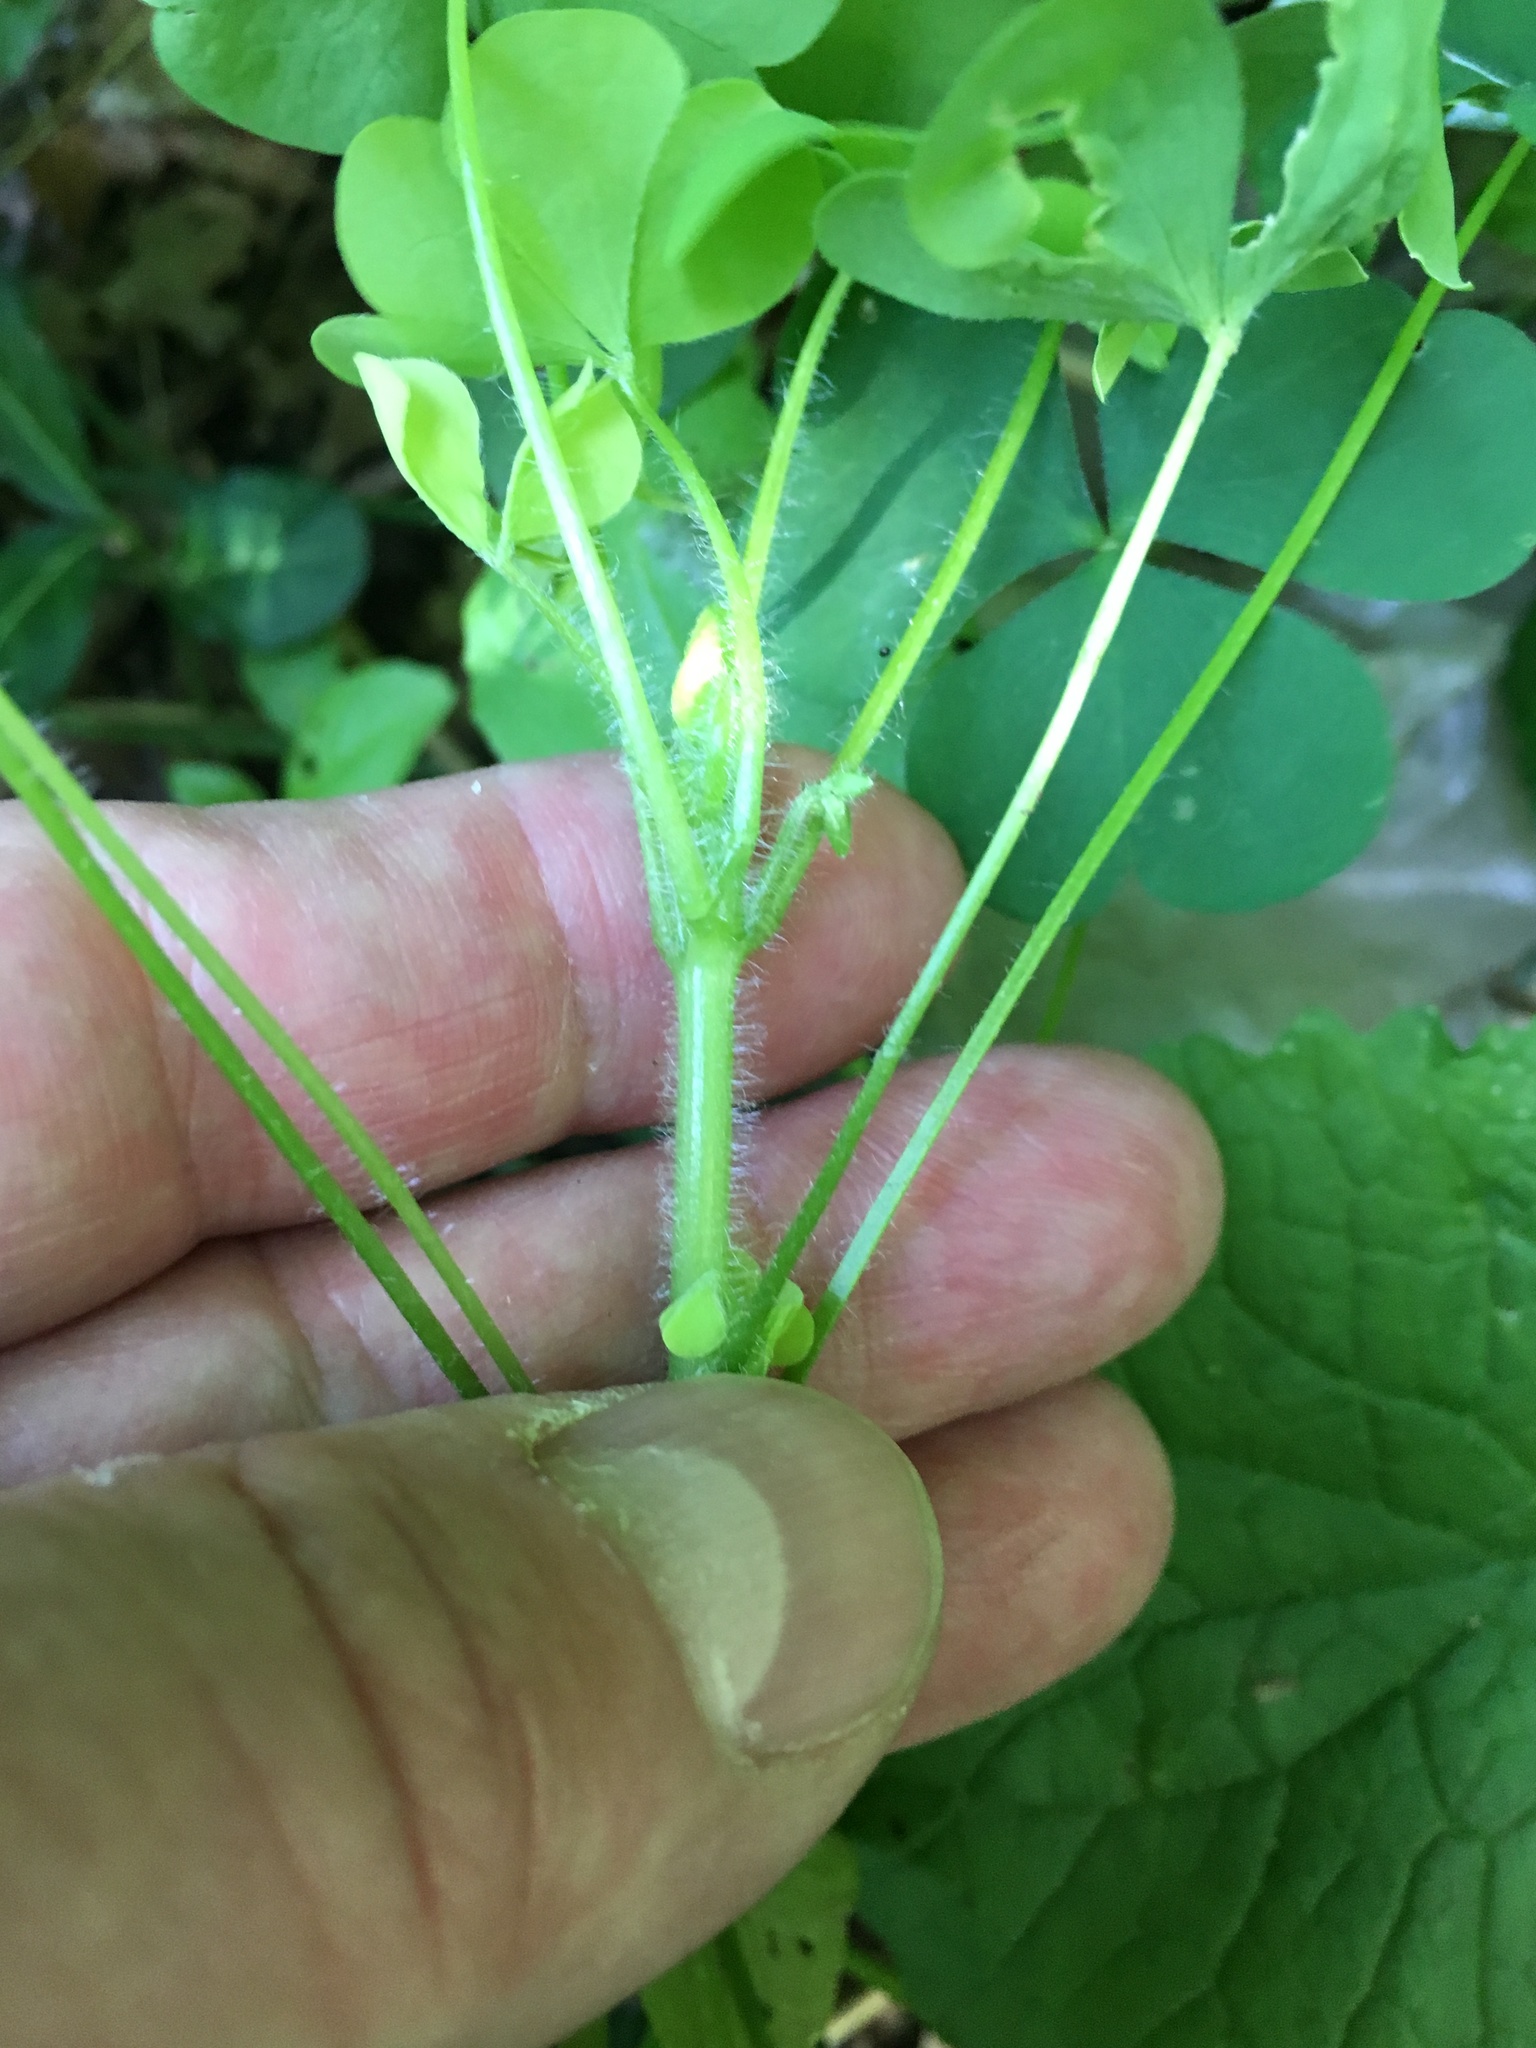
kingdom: Plantae
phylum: Tracheophyta
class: Magnoliopsida
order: Oxalidales
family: Oxalidaceae
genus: Oxalis
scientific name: Oxalis stricta
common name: Upright yellow-sorrel
